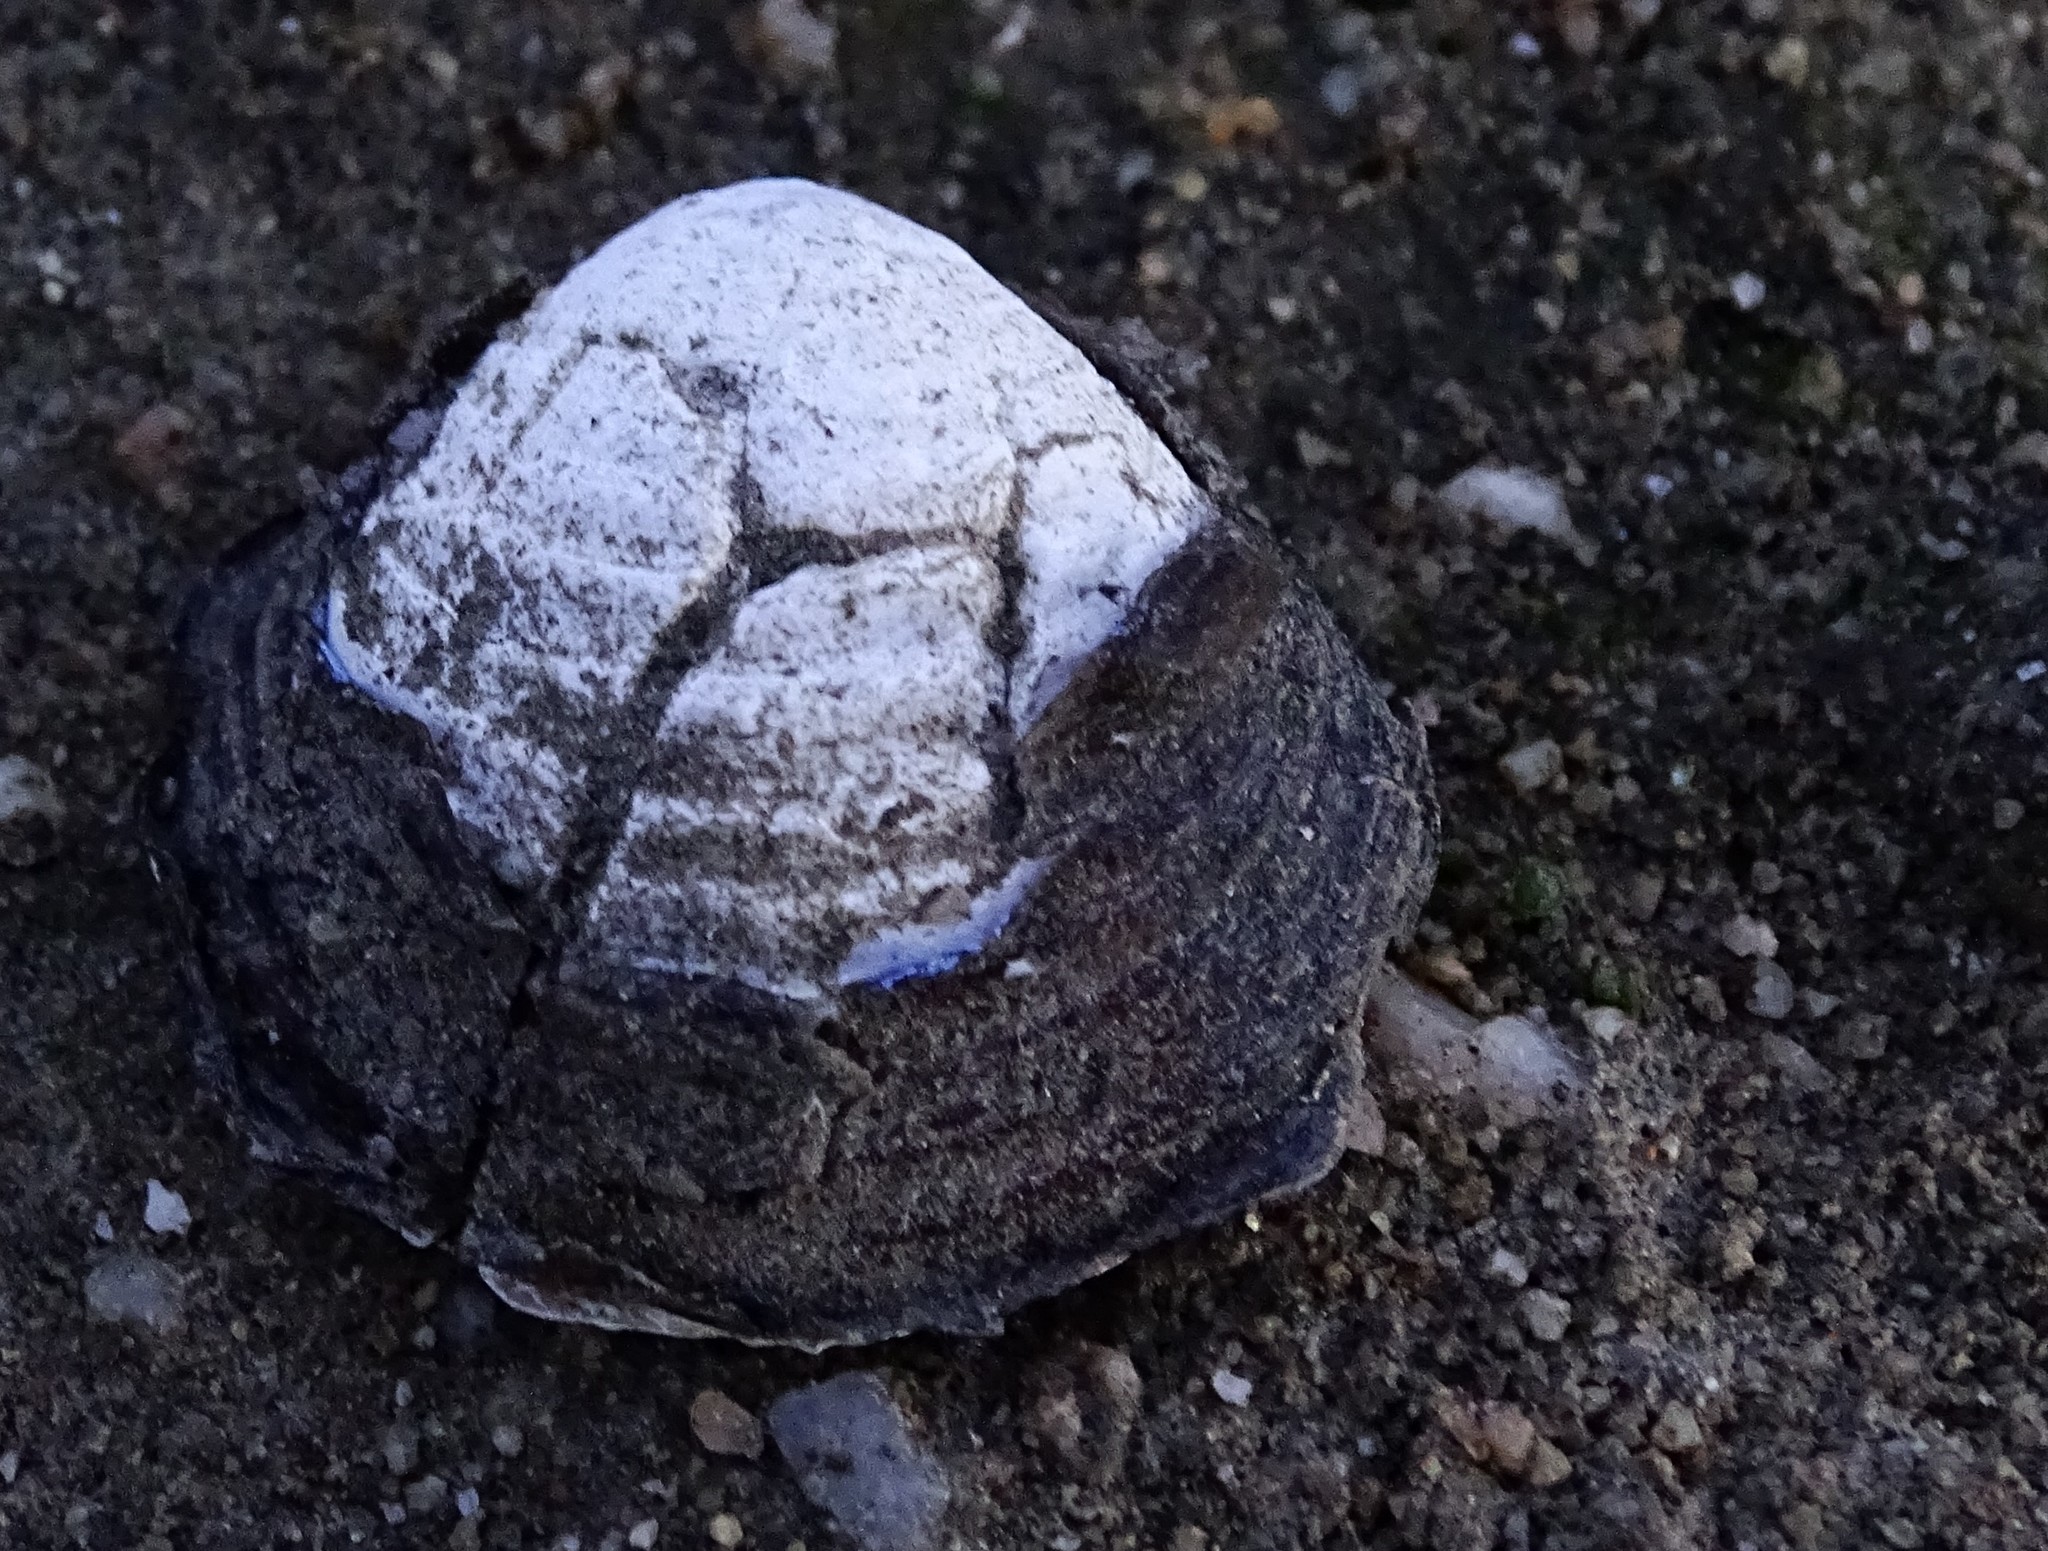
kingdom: Animalia
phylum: Mollusca
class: Bivalvia
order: Venerida
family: Cyrenidae
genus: Corbicula
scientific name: Corbicula fluminea
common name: Asian clam
